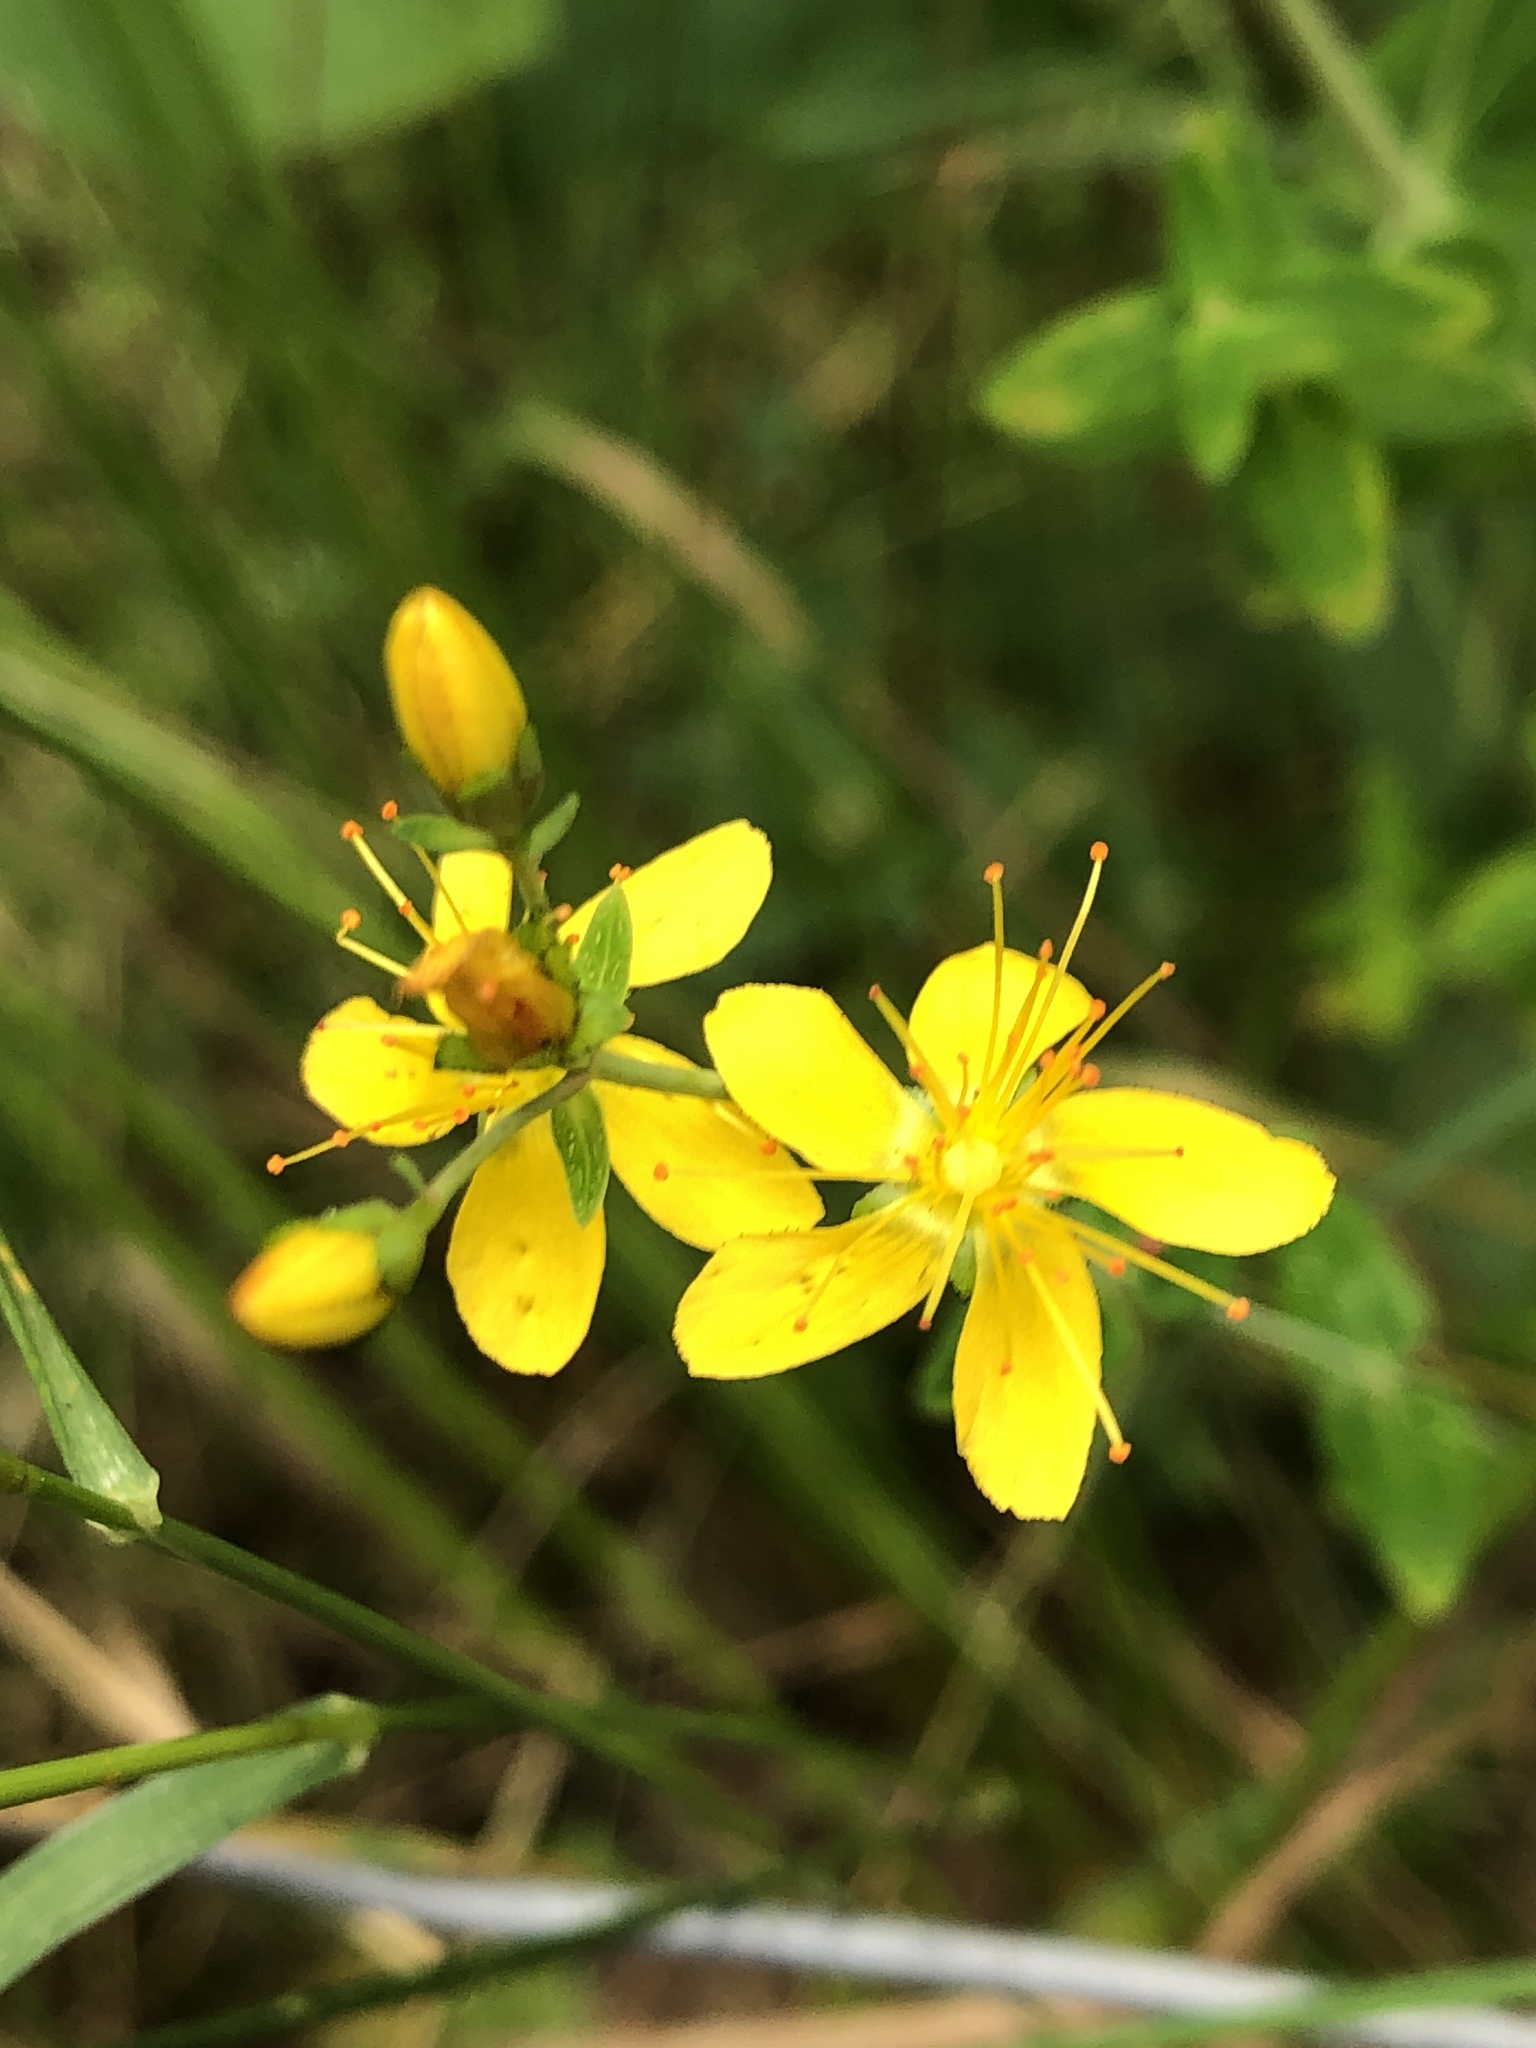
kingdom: Plantae
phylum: Tracheophyta
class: Magnoliopsida
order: Malpighiales
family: Hypericaceae
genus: Hypericum
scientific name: Hypericum pulchrum
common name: Slender st. john's-wort
